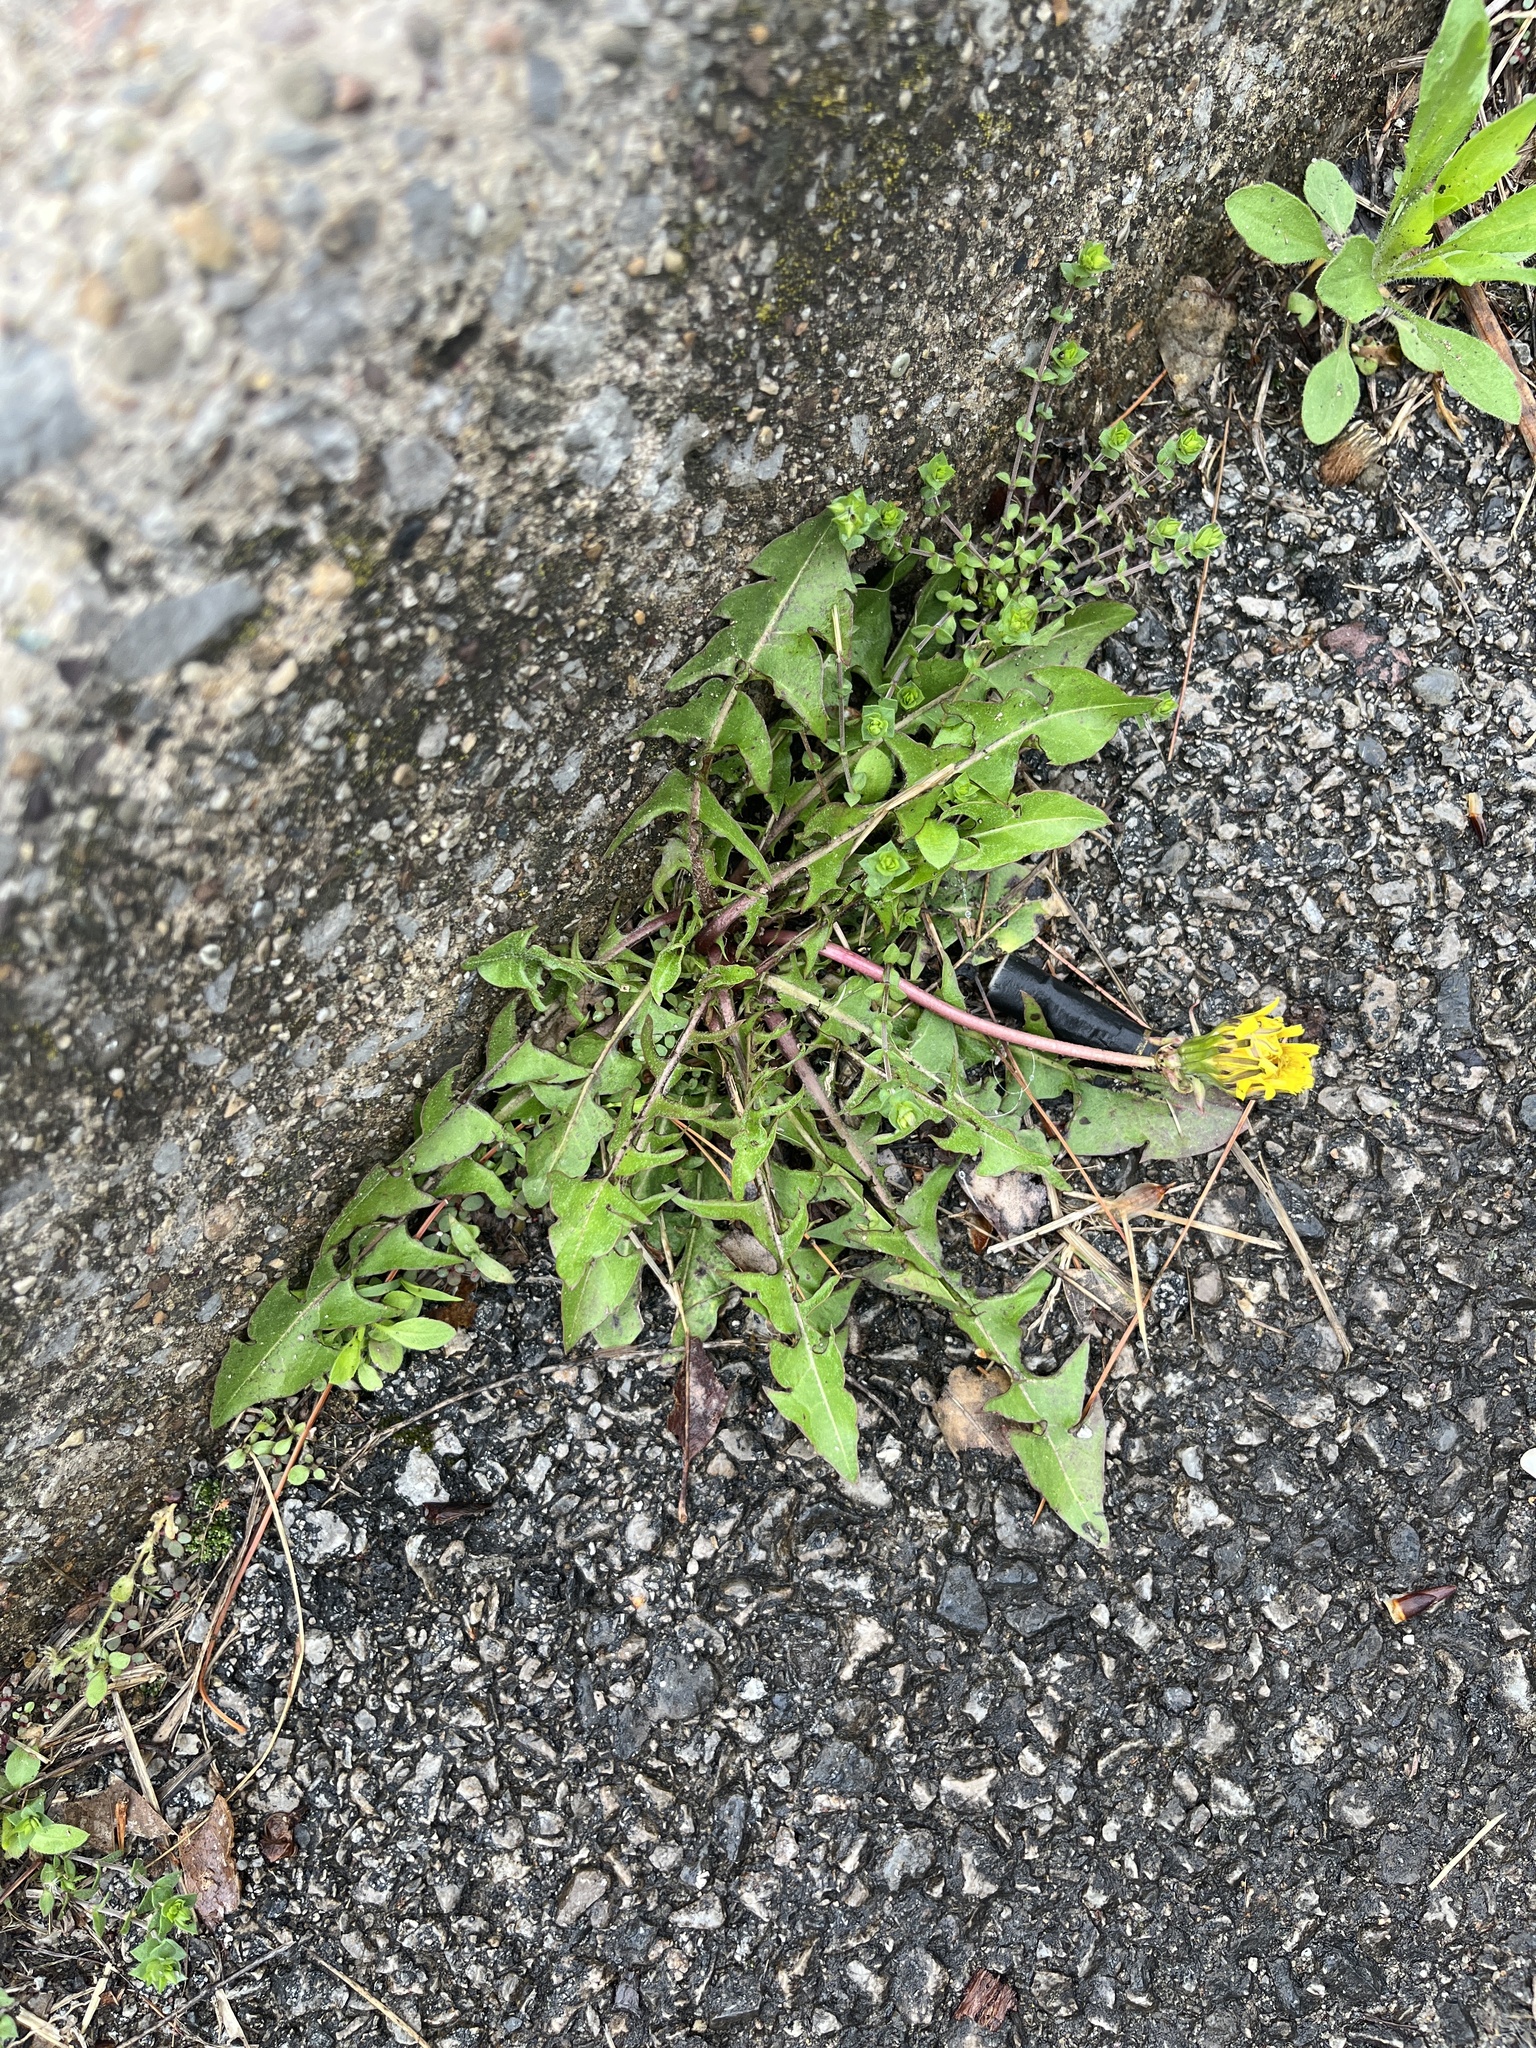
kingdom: Plantae
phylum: Tracheophyta
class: Magnoliopsida
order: Asterales
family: Asteraceae
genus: Taraxacum
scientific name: Taraxacum officinale
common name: Common dandelion
